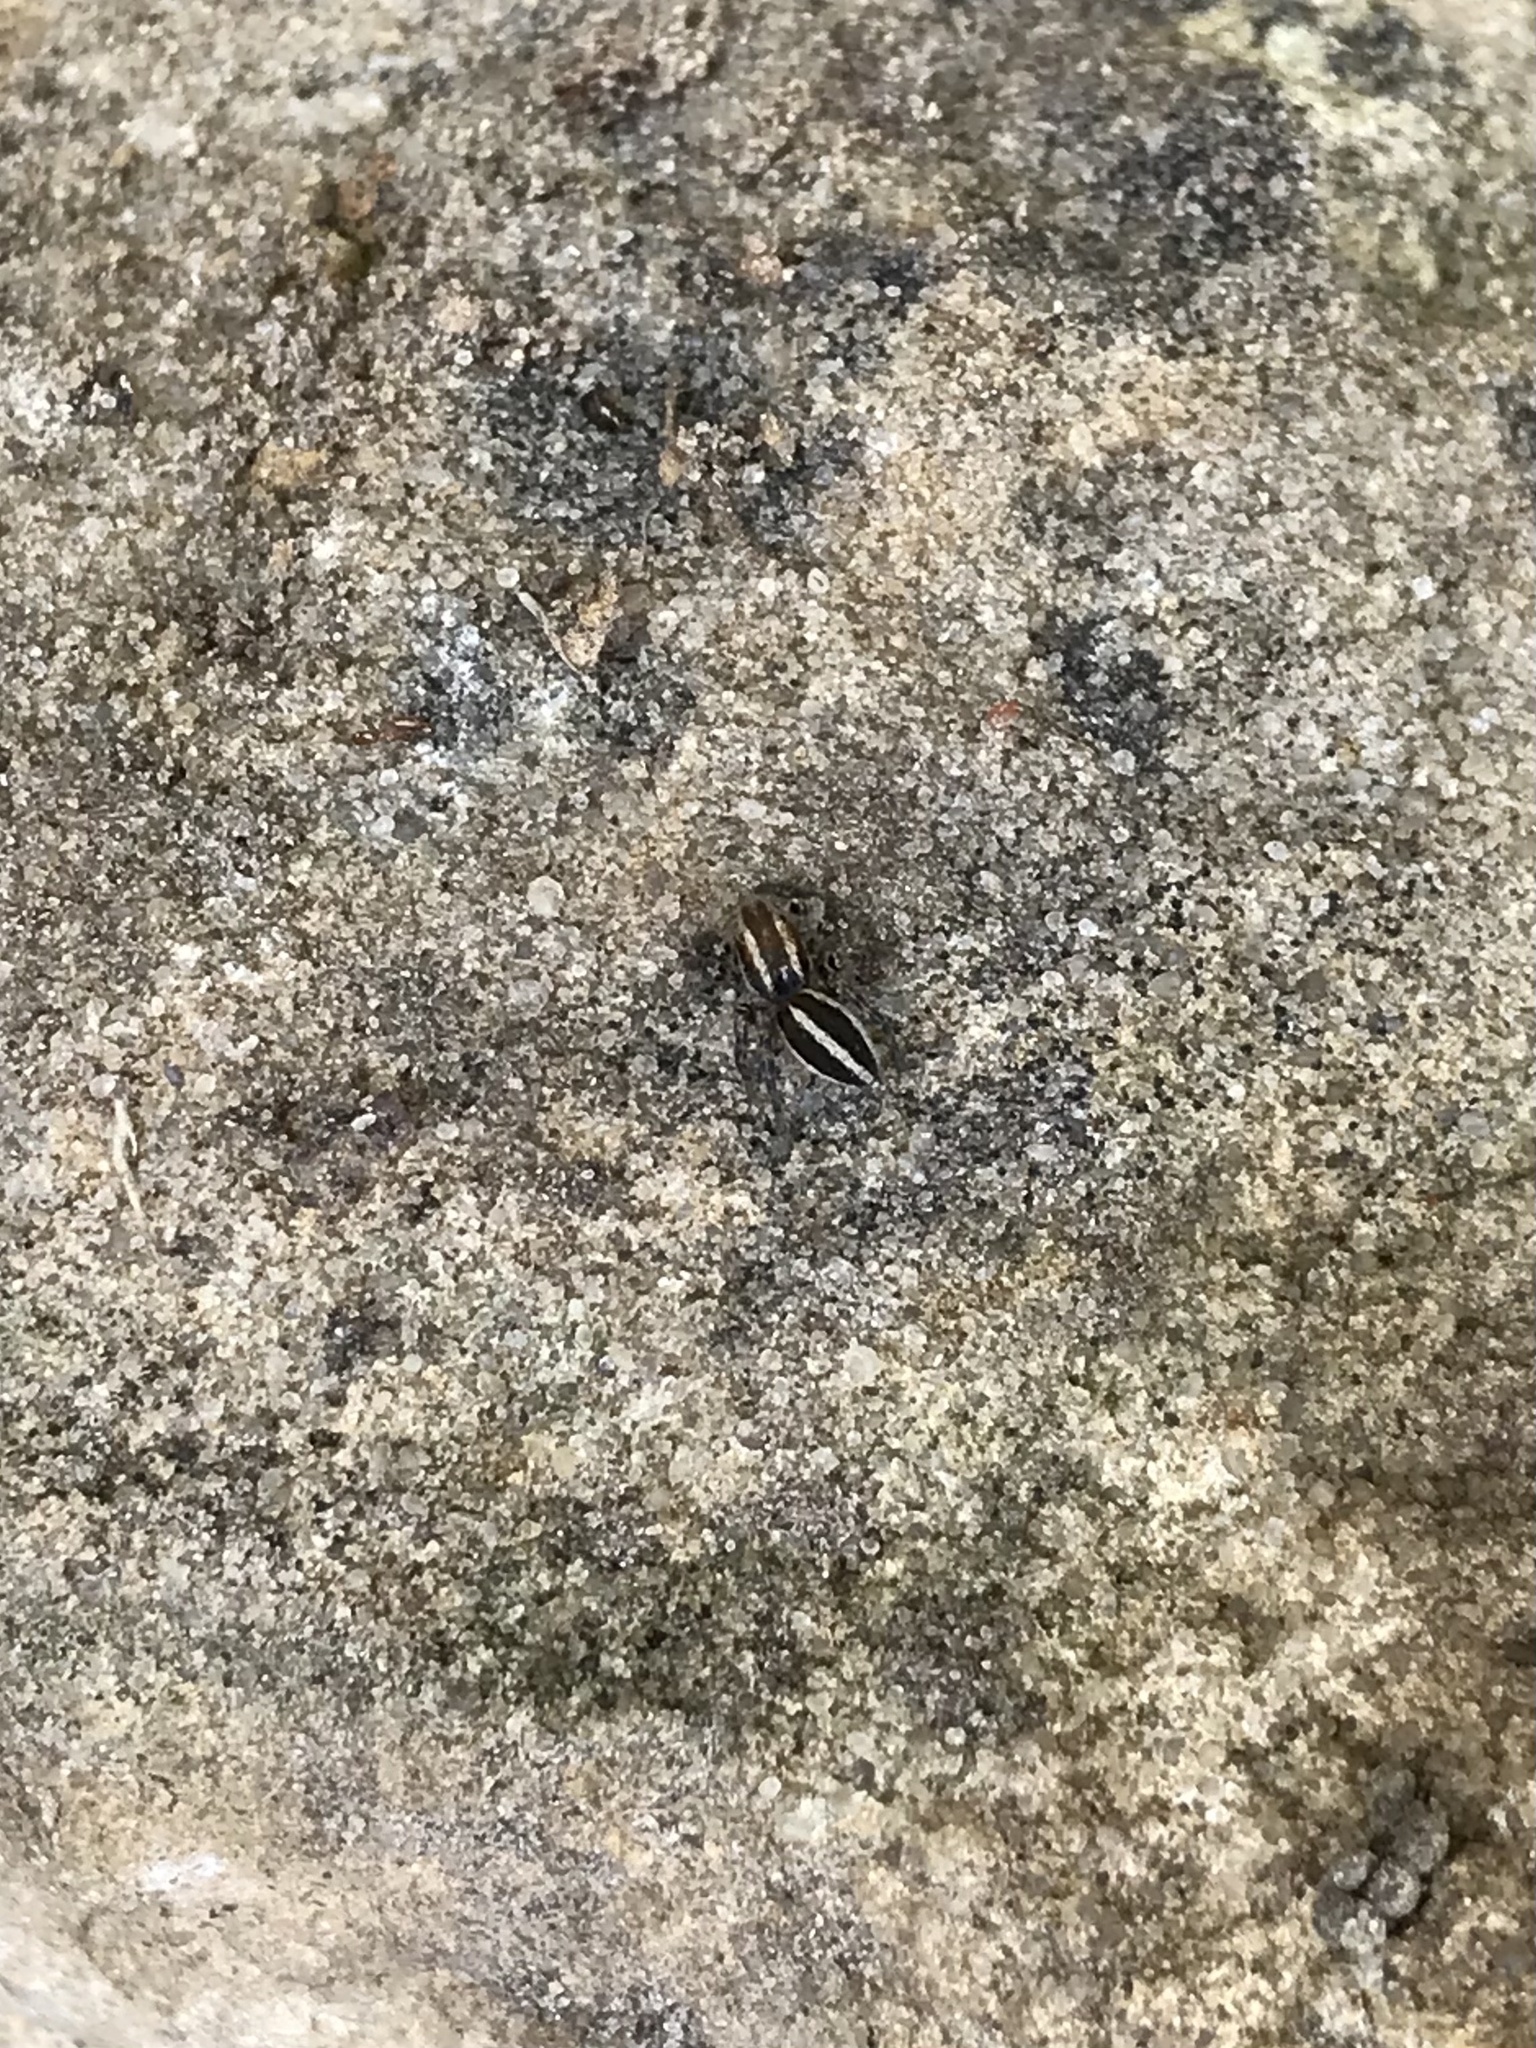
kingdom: Animalia
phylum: Arthropoda
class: Arachnida
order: Araneae
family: Salticidae
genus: Phlegra
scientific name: Phlegra hentzi
